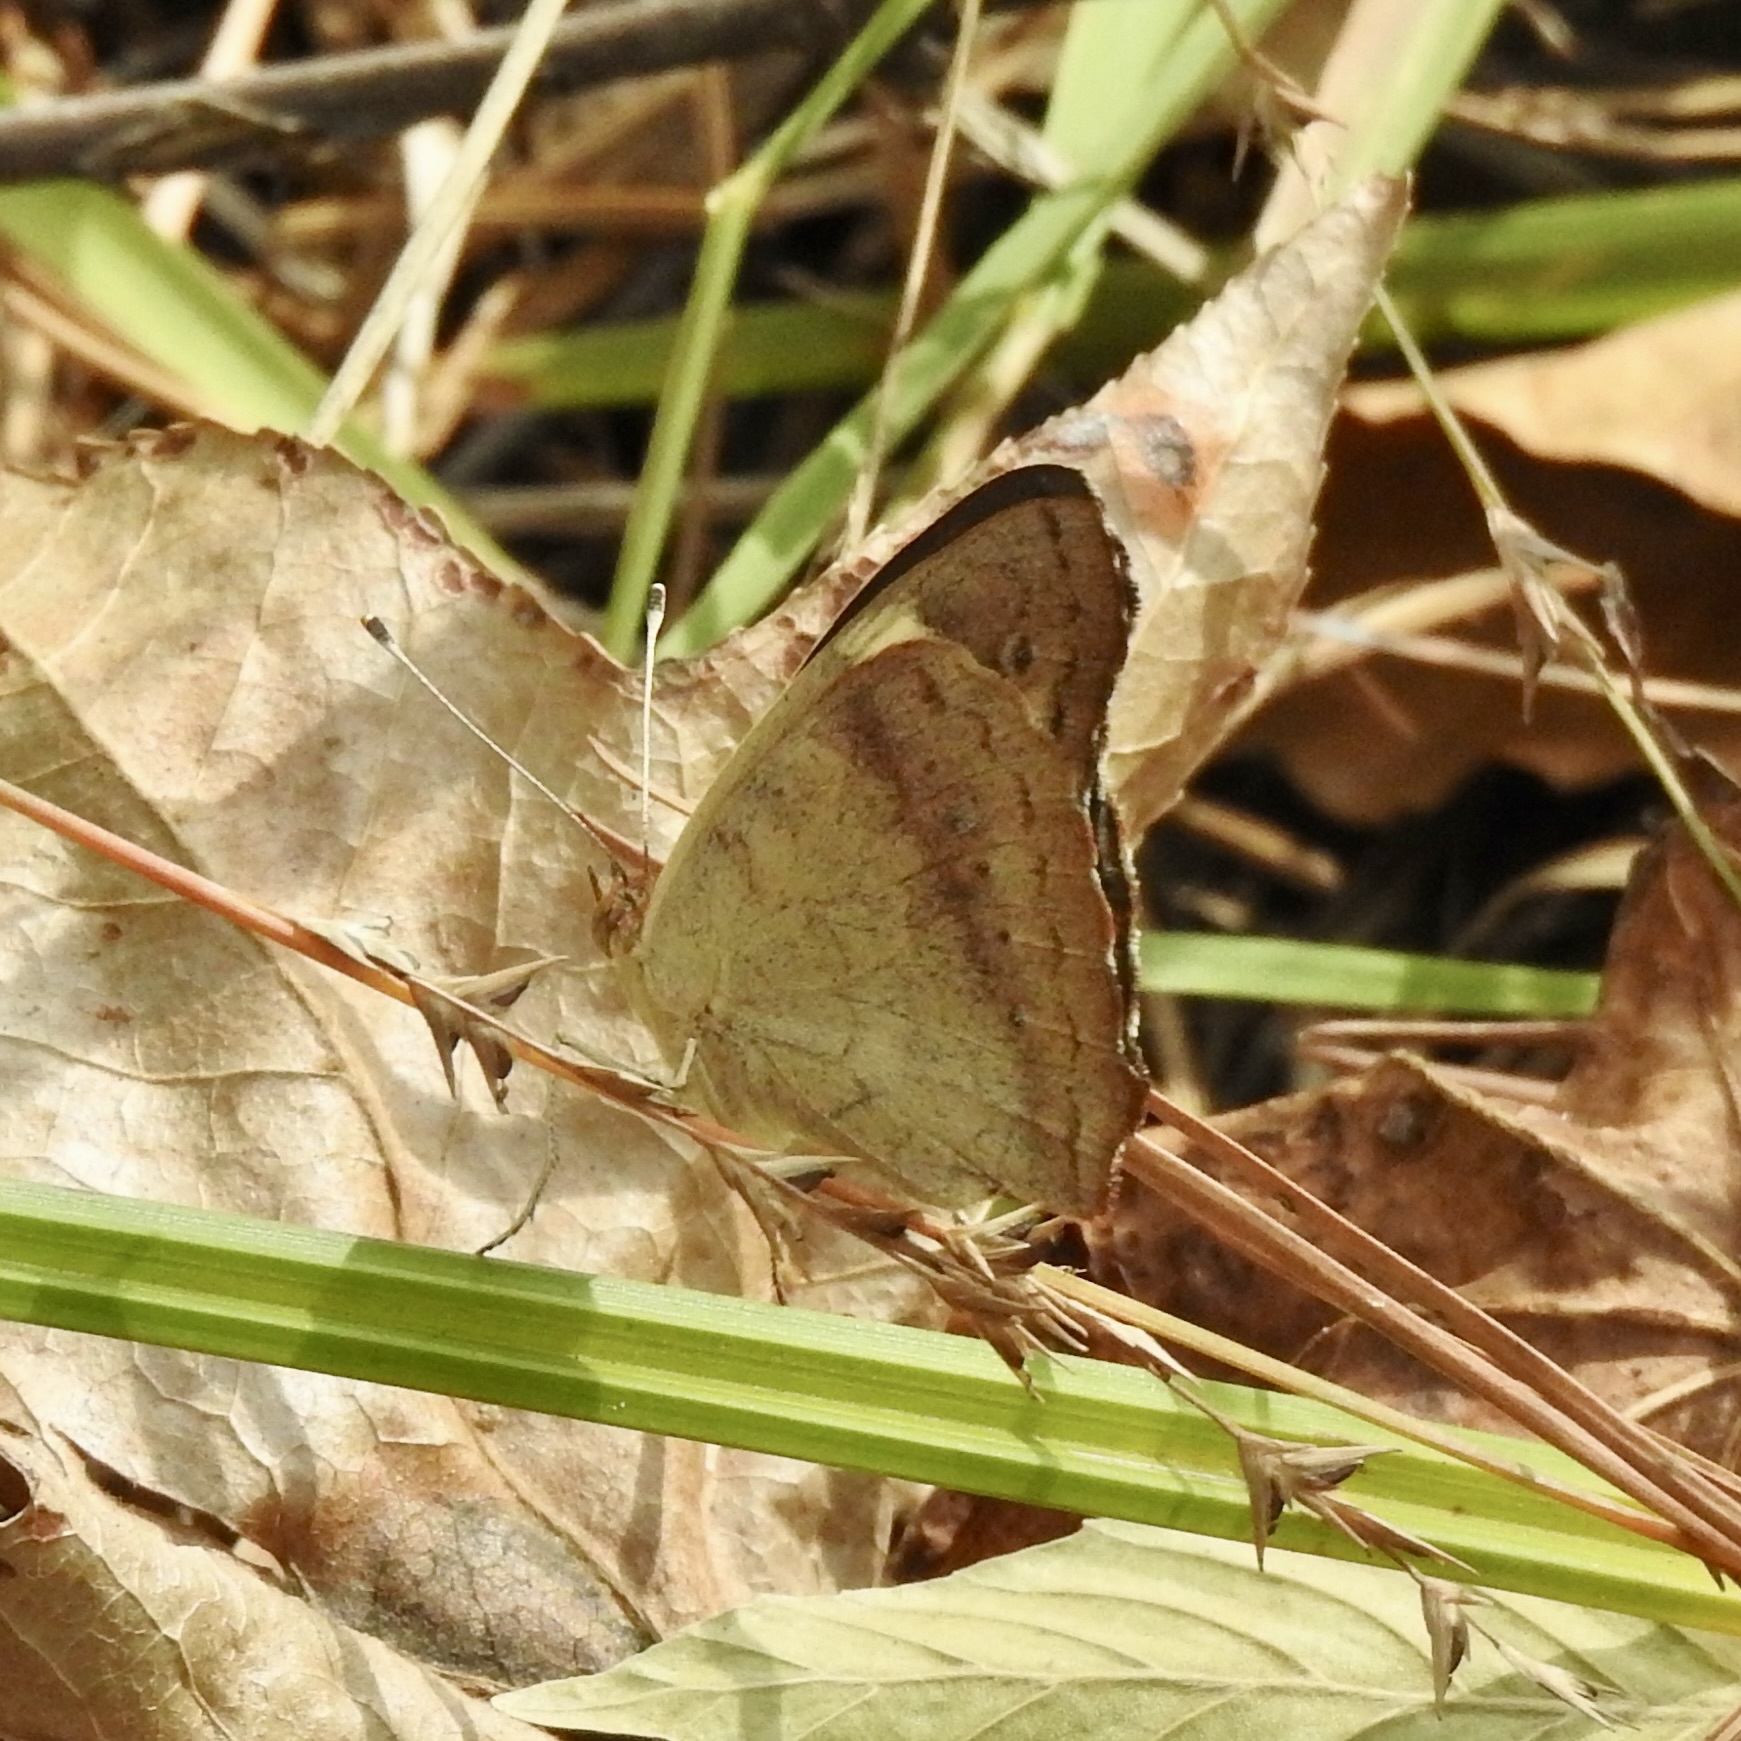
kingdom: Animalia
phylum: Arthropoda
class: Insecta
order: Lepidoptera
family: Nymphalidae
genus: Junonia
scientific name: Junonia coenia
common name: Common buckeye
